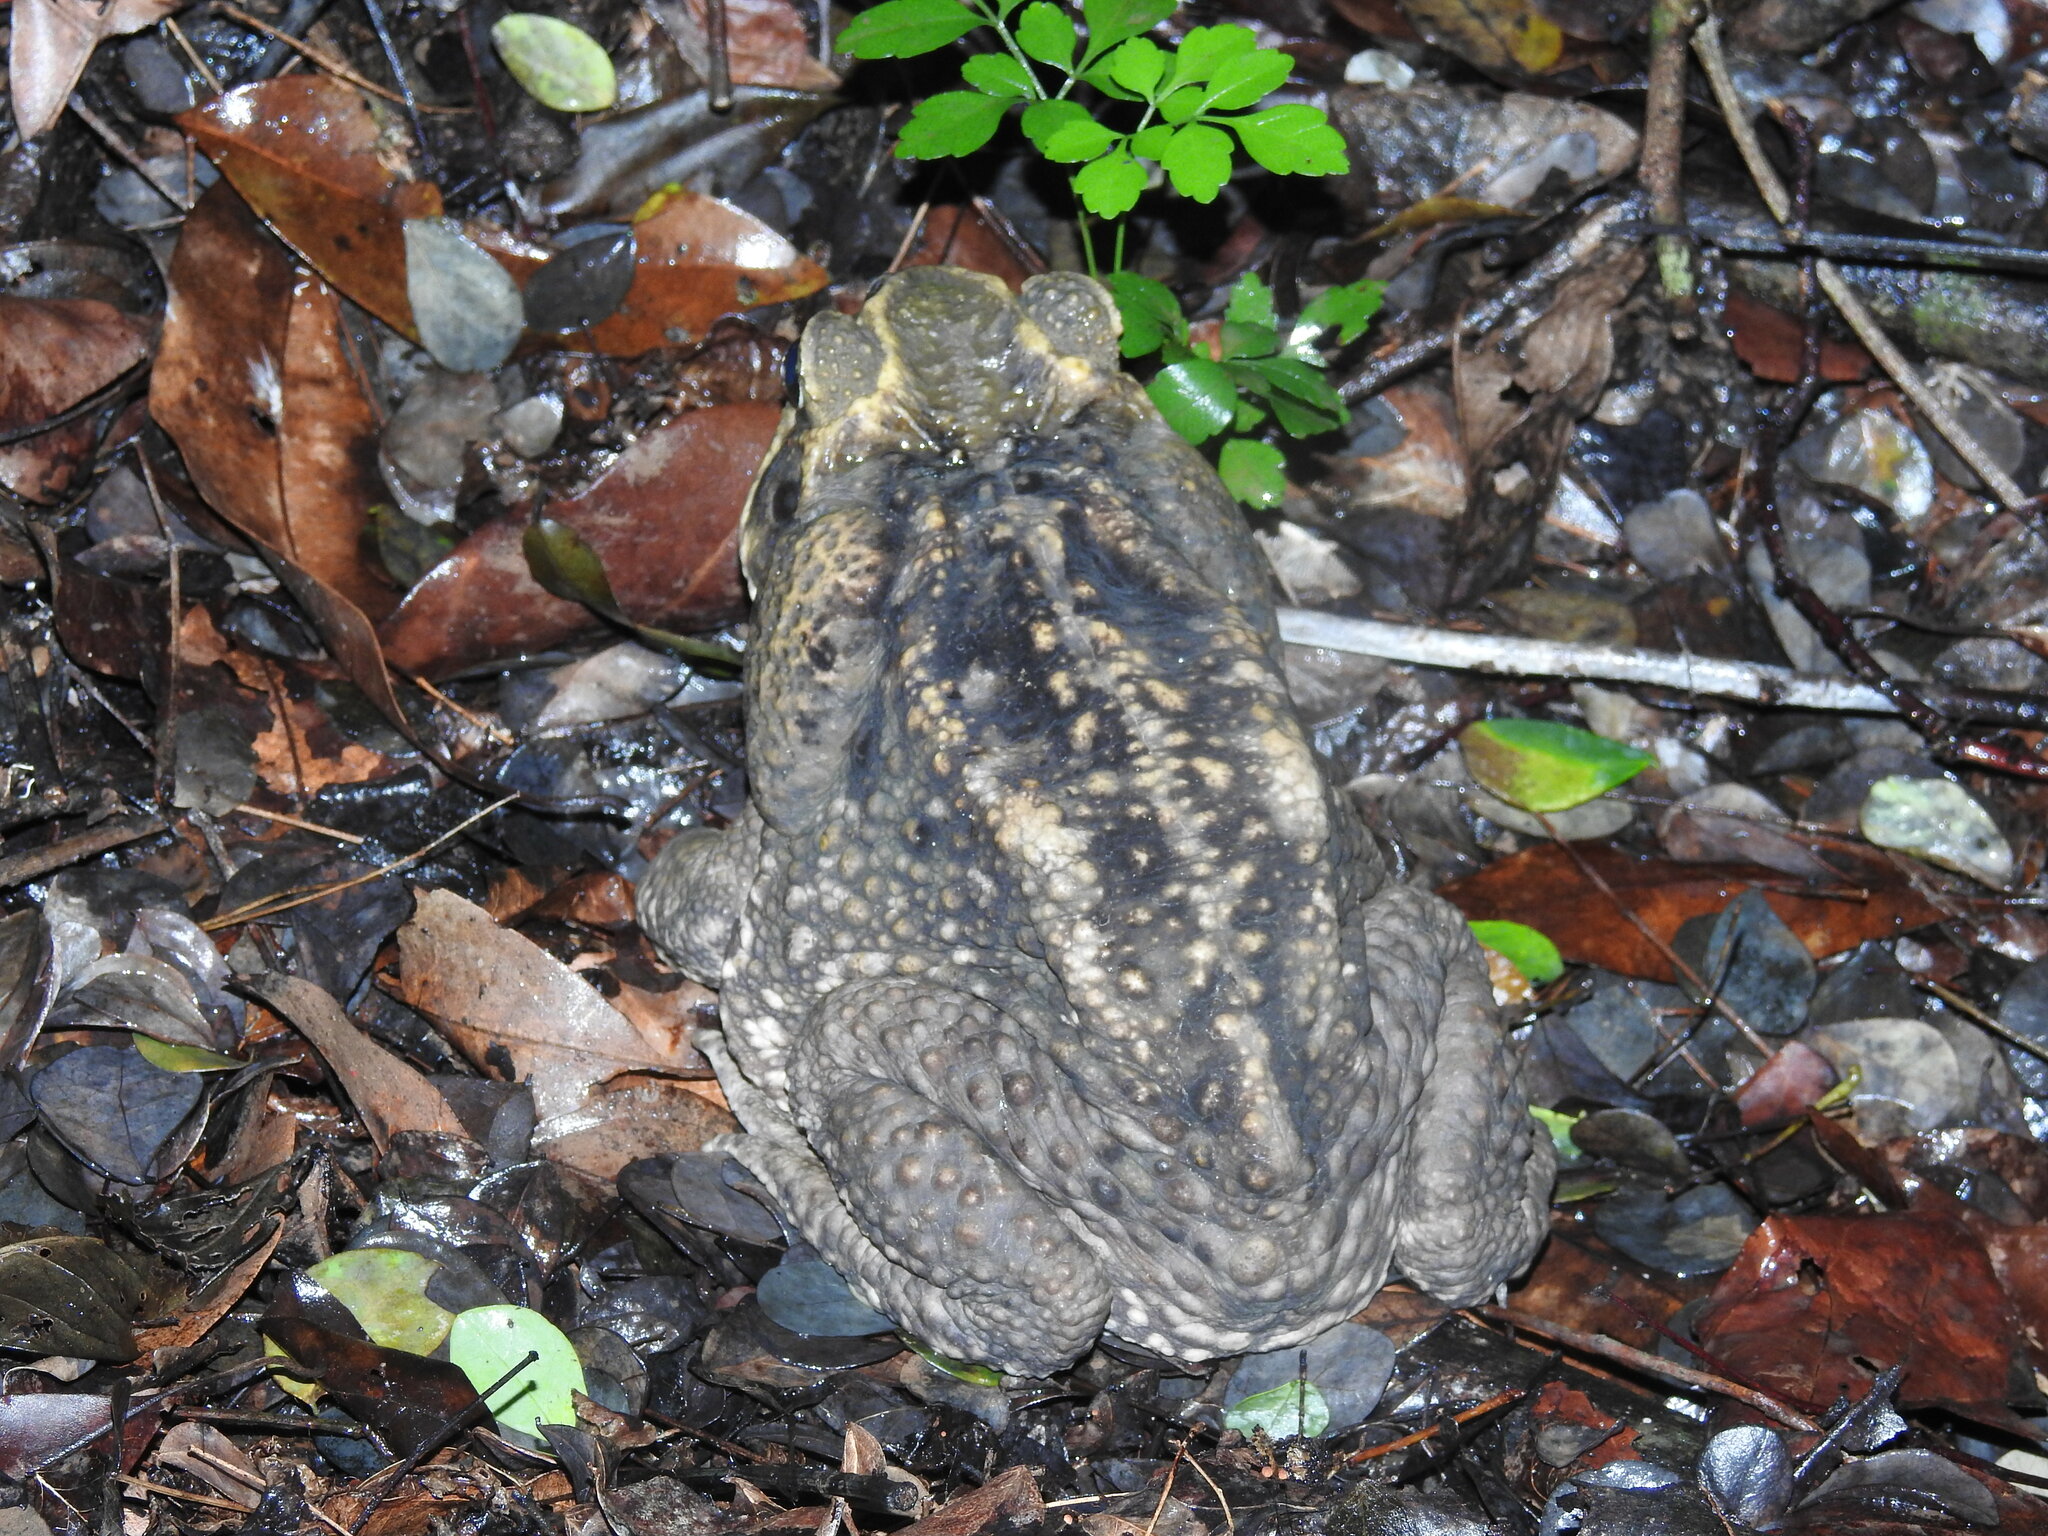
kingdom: Animalia
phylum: Chordata
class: Amphibia
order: Anura
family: Bufonidae
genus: Rhinella
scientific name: Rhinella horribilis
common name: Mesoamerican cane toad
